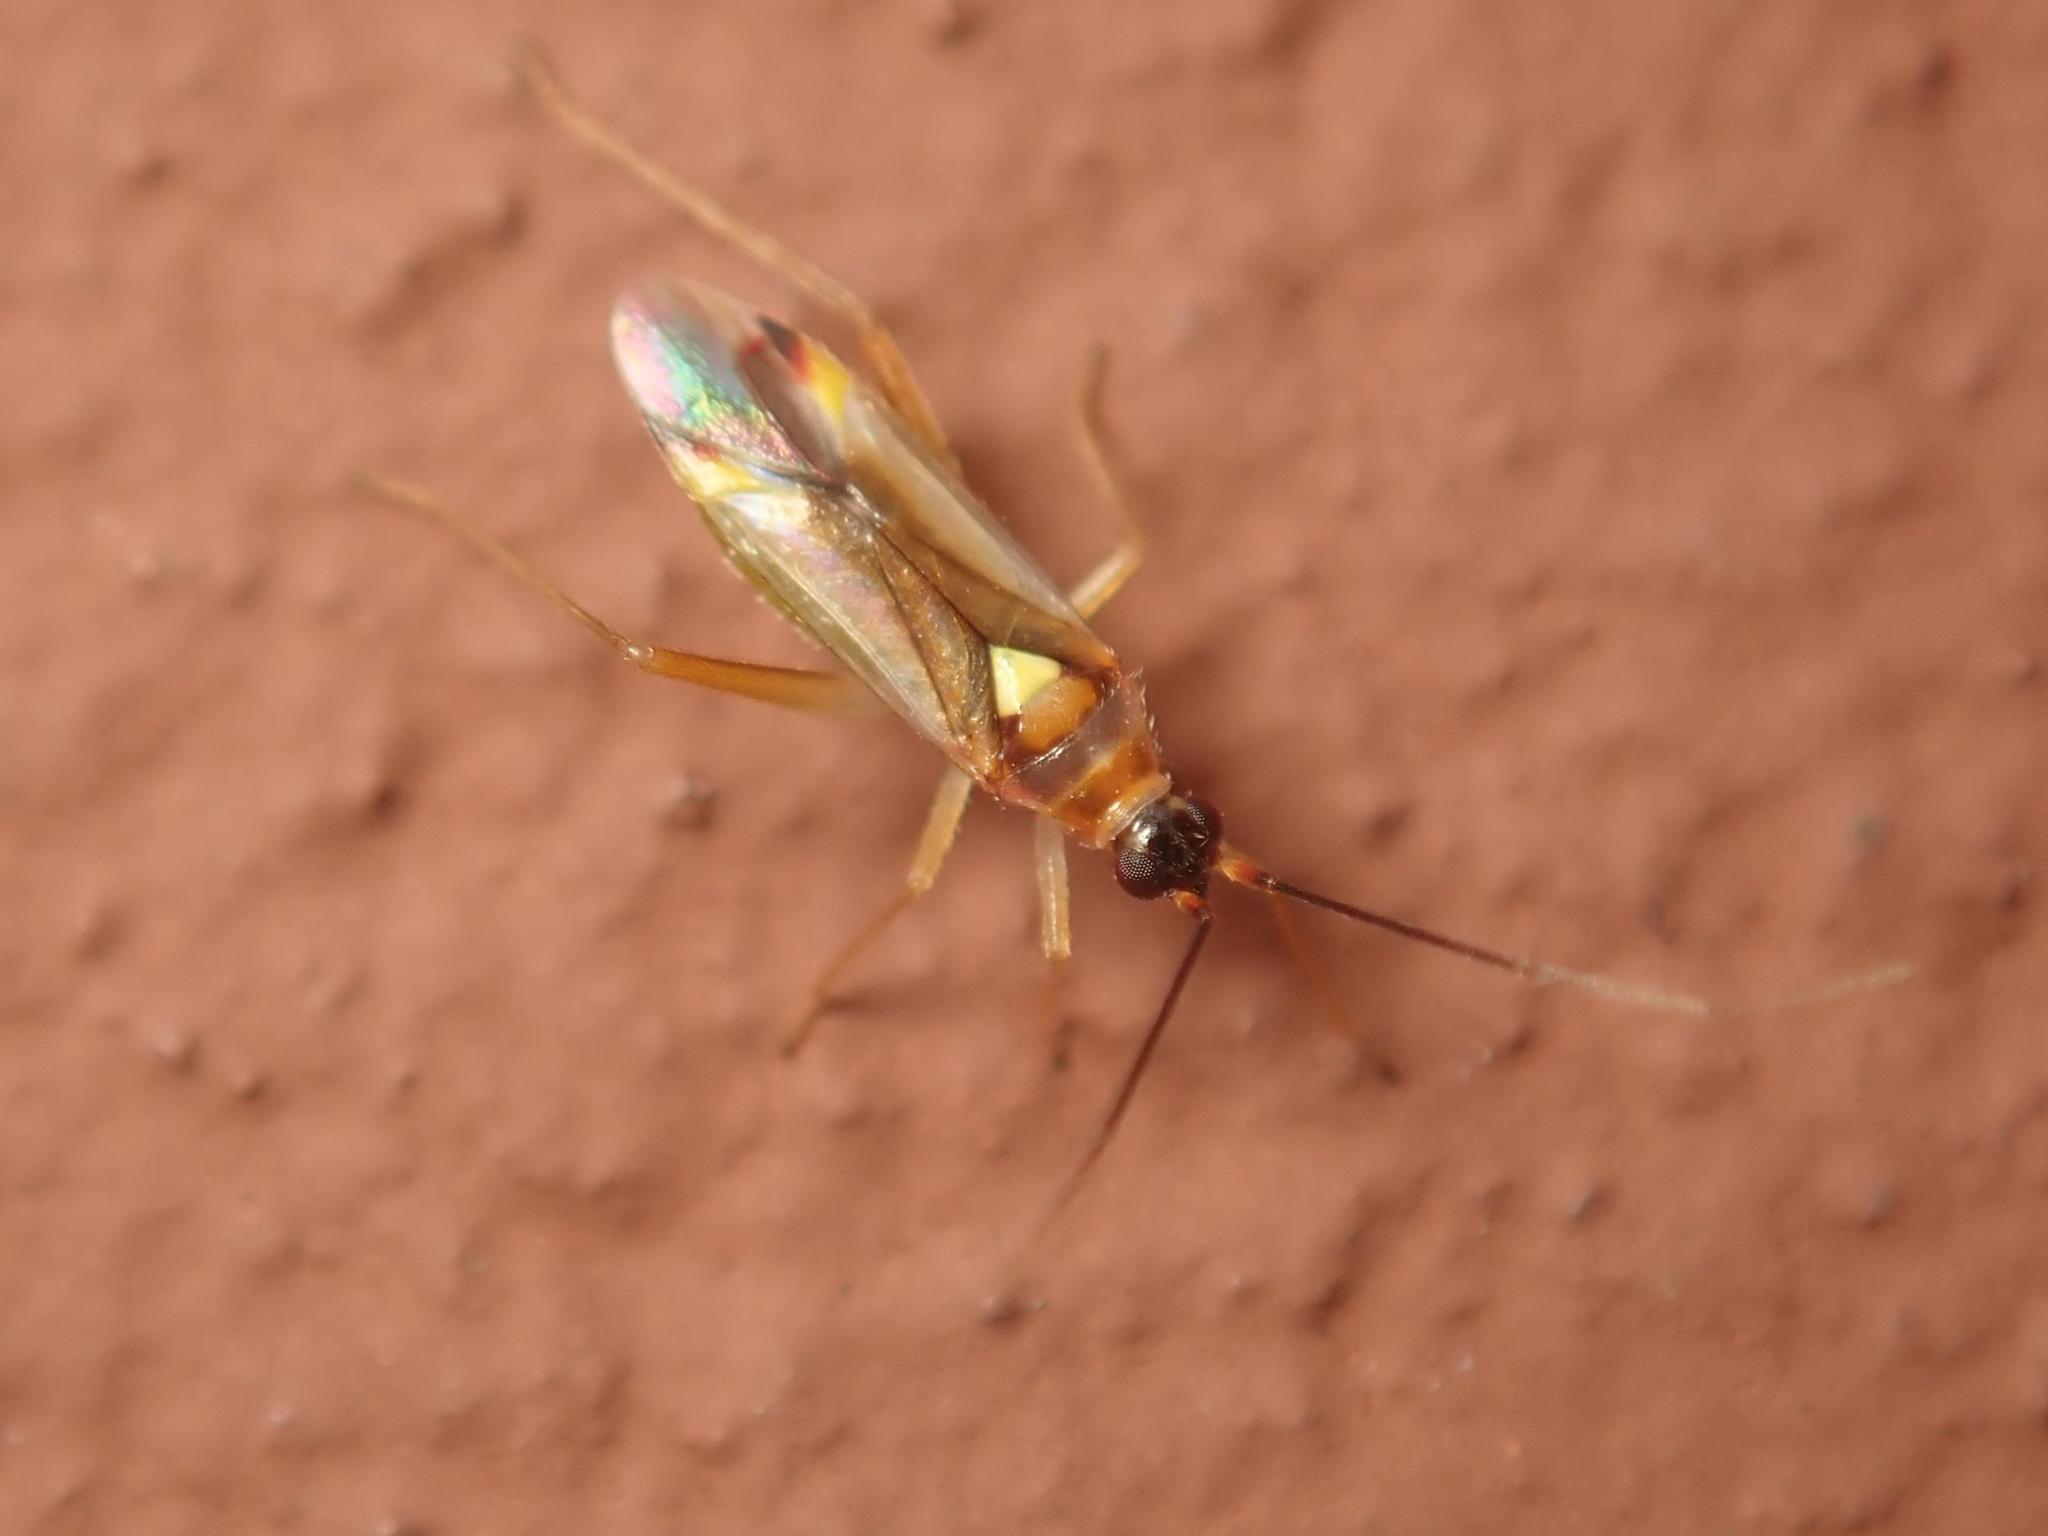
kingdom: Animalia
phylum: Arthropoda
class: Insecta
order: Hemiptera
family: Miridae
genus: Campyloneura
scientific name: Campyloneura virgula
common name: Predatory bug
